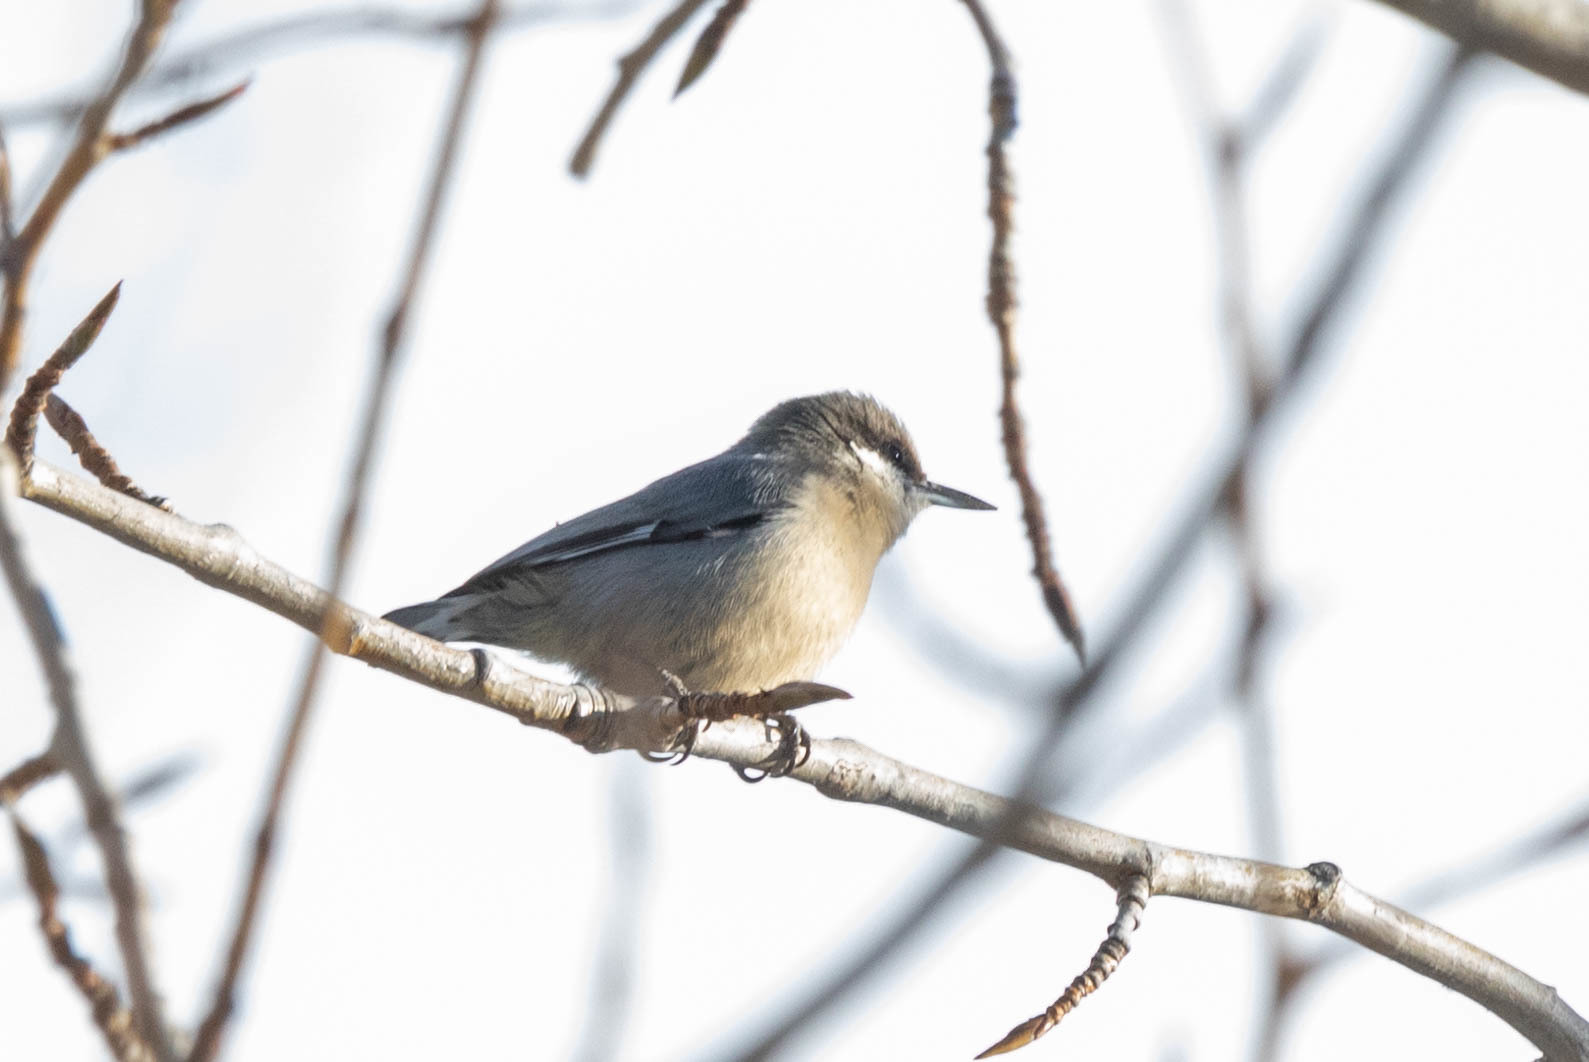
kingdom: Animalia
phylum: Chordata
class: Aves
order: Passeriformes
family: Sittidae
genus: Sitta
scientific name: Sitta pygmaea
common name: Pygmy nuthatch
